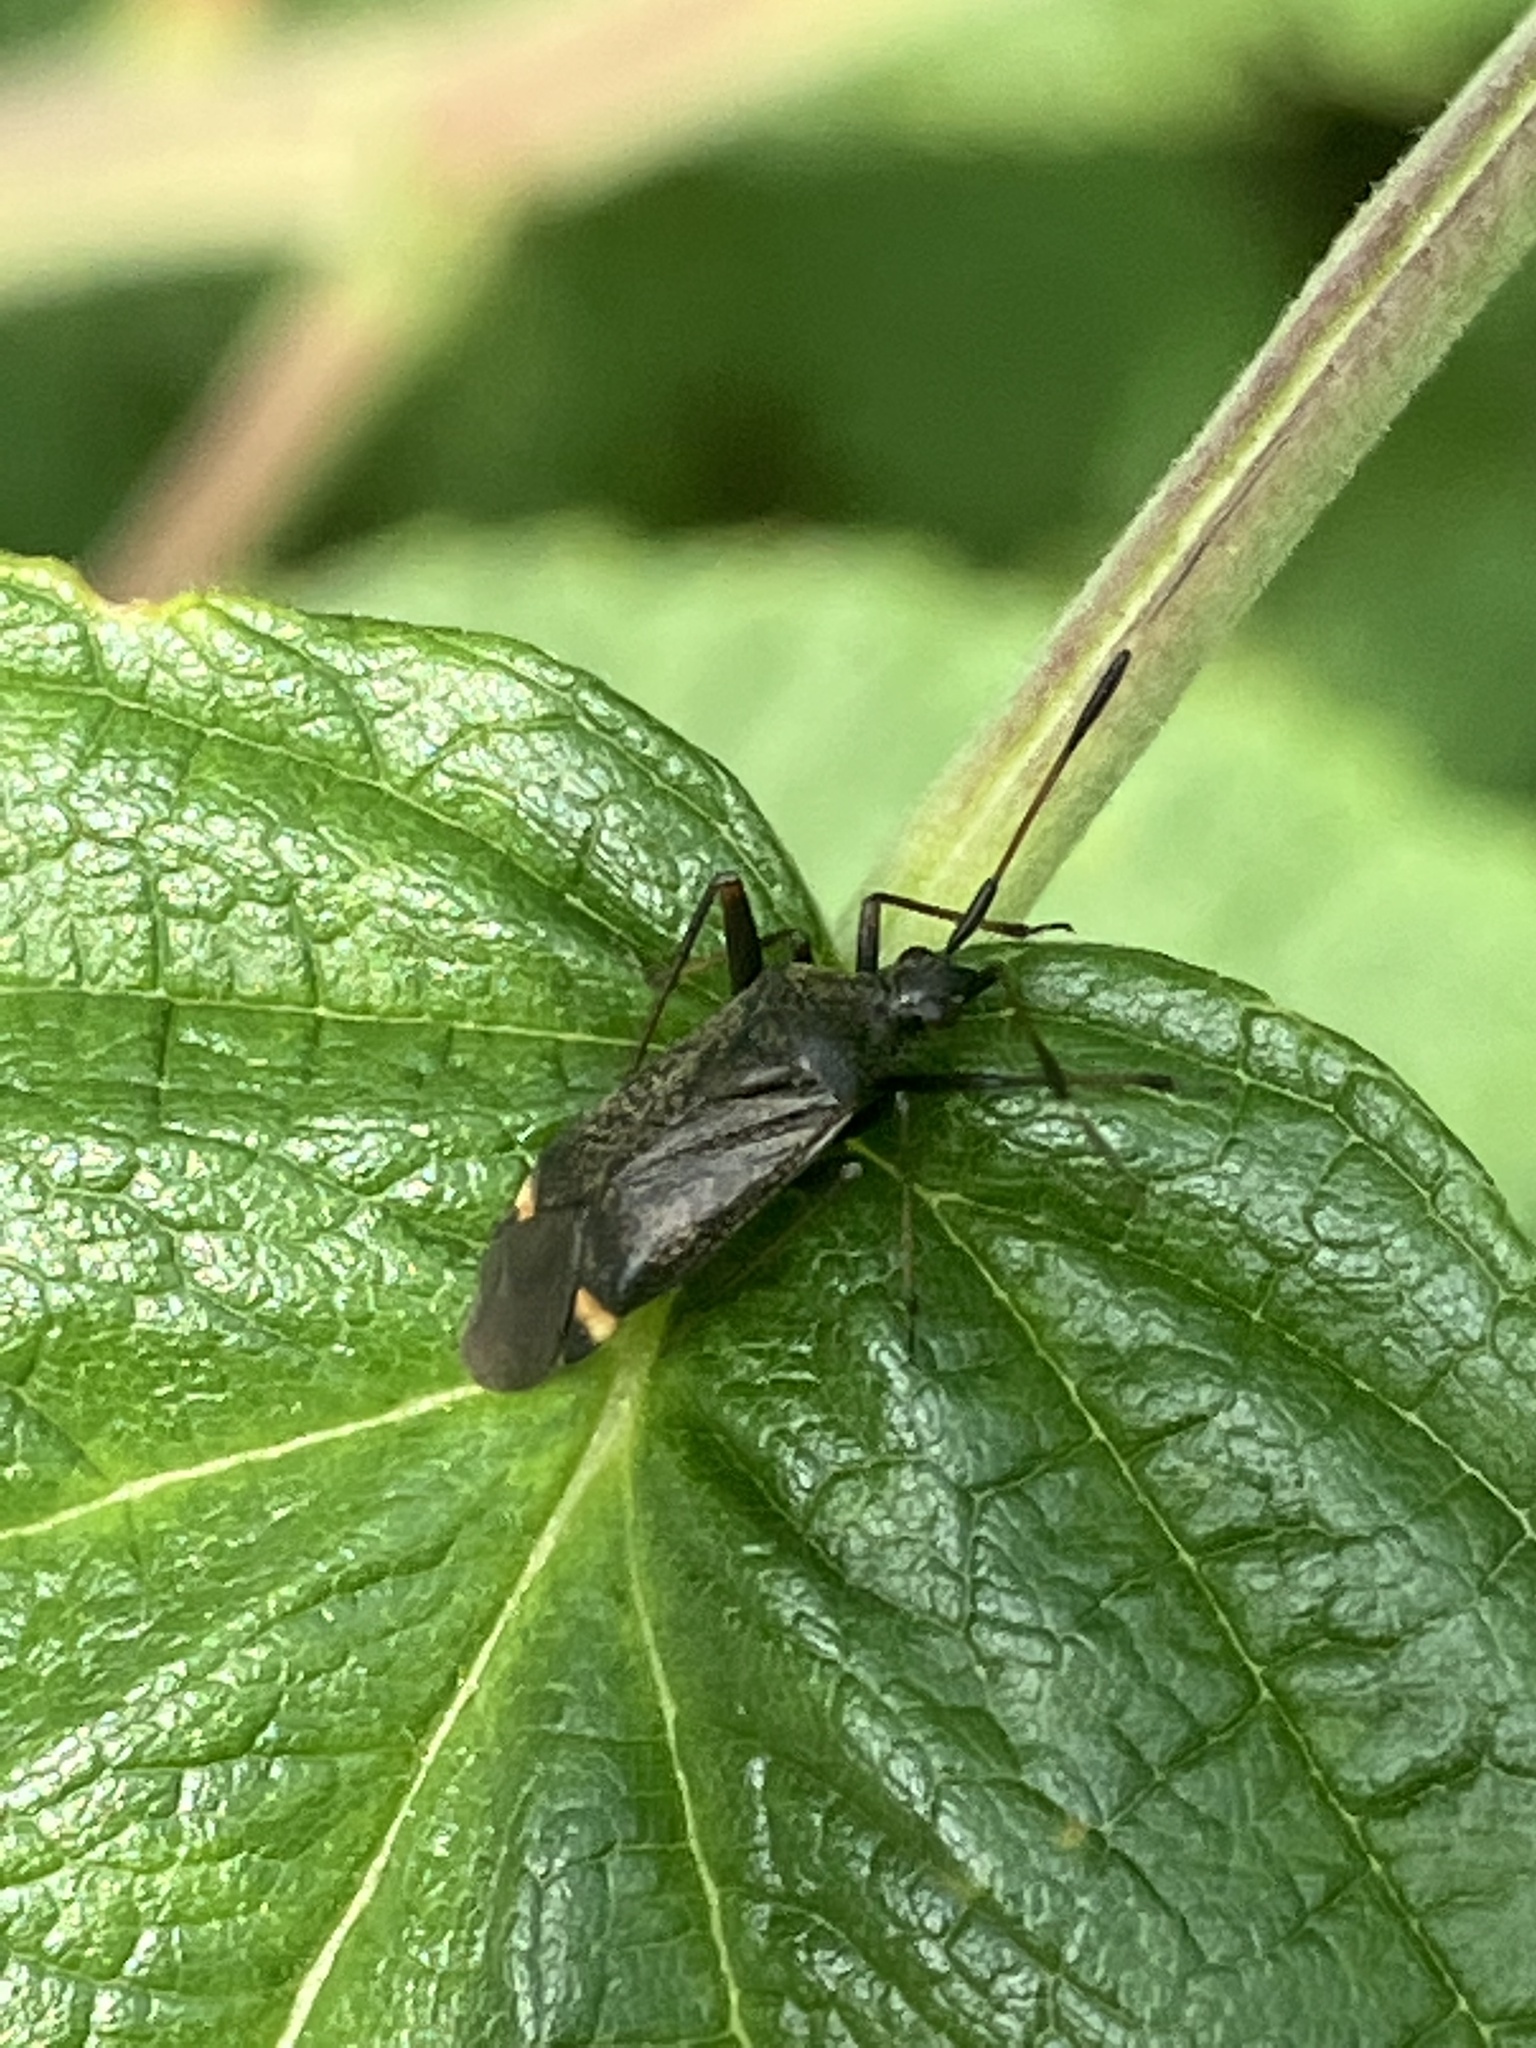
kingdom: Animalia
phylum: Arthropoda
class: Insecta
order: Hemiptera
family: Miridae
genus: Closterotomus
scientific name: Closterotomus biclavatus
